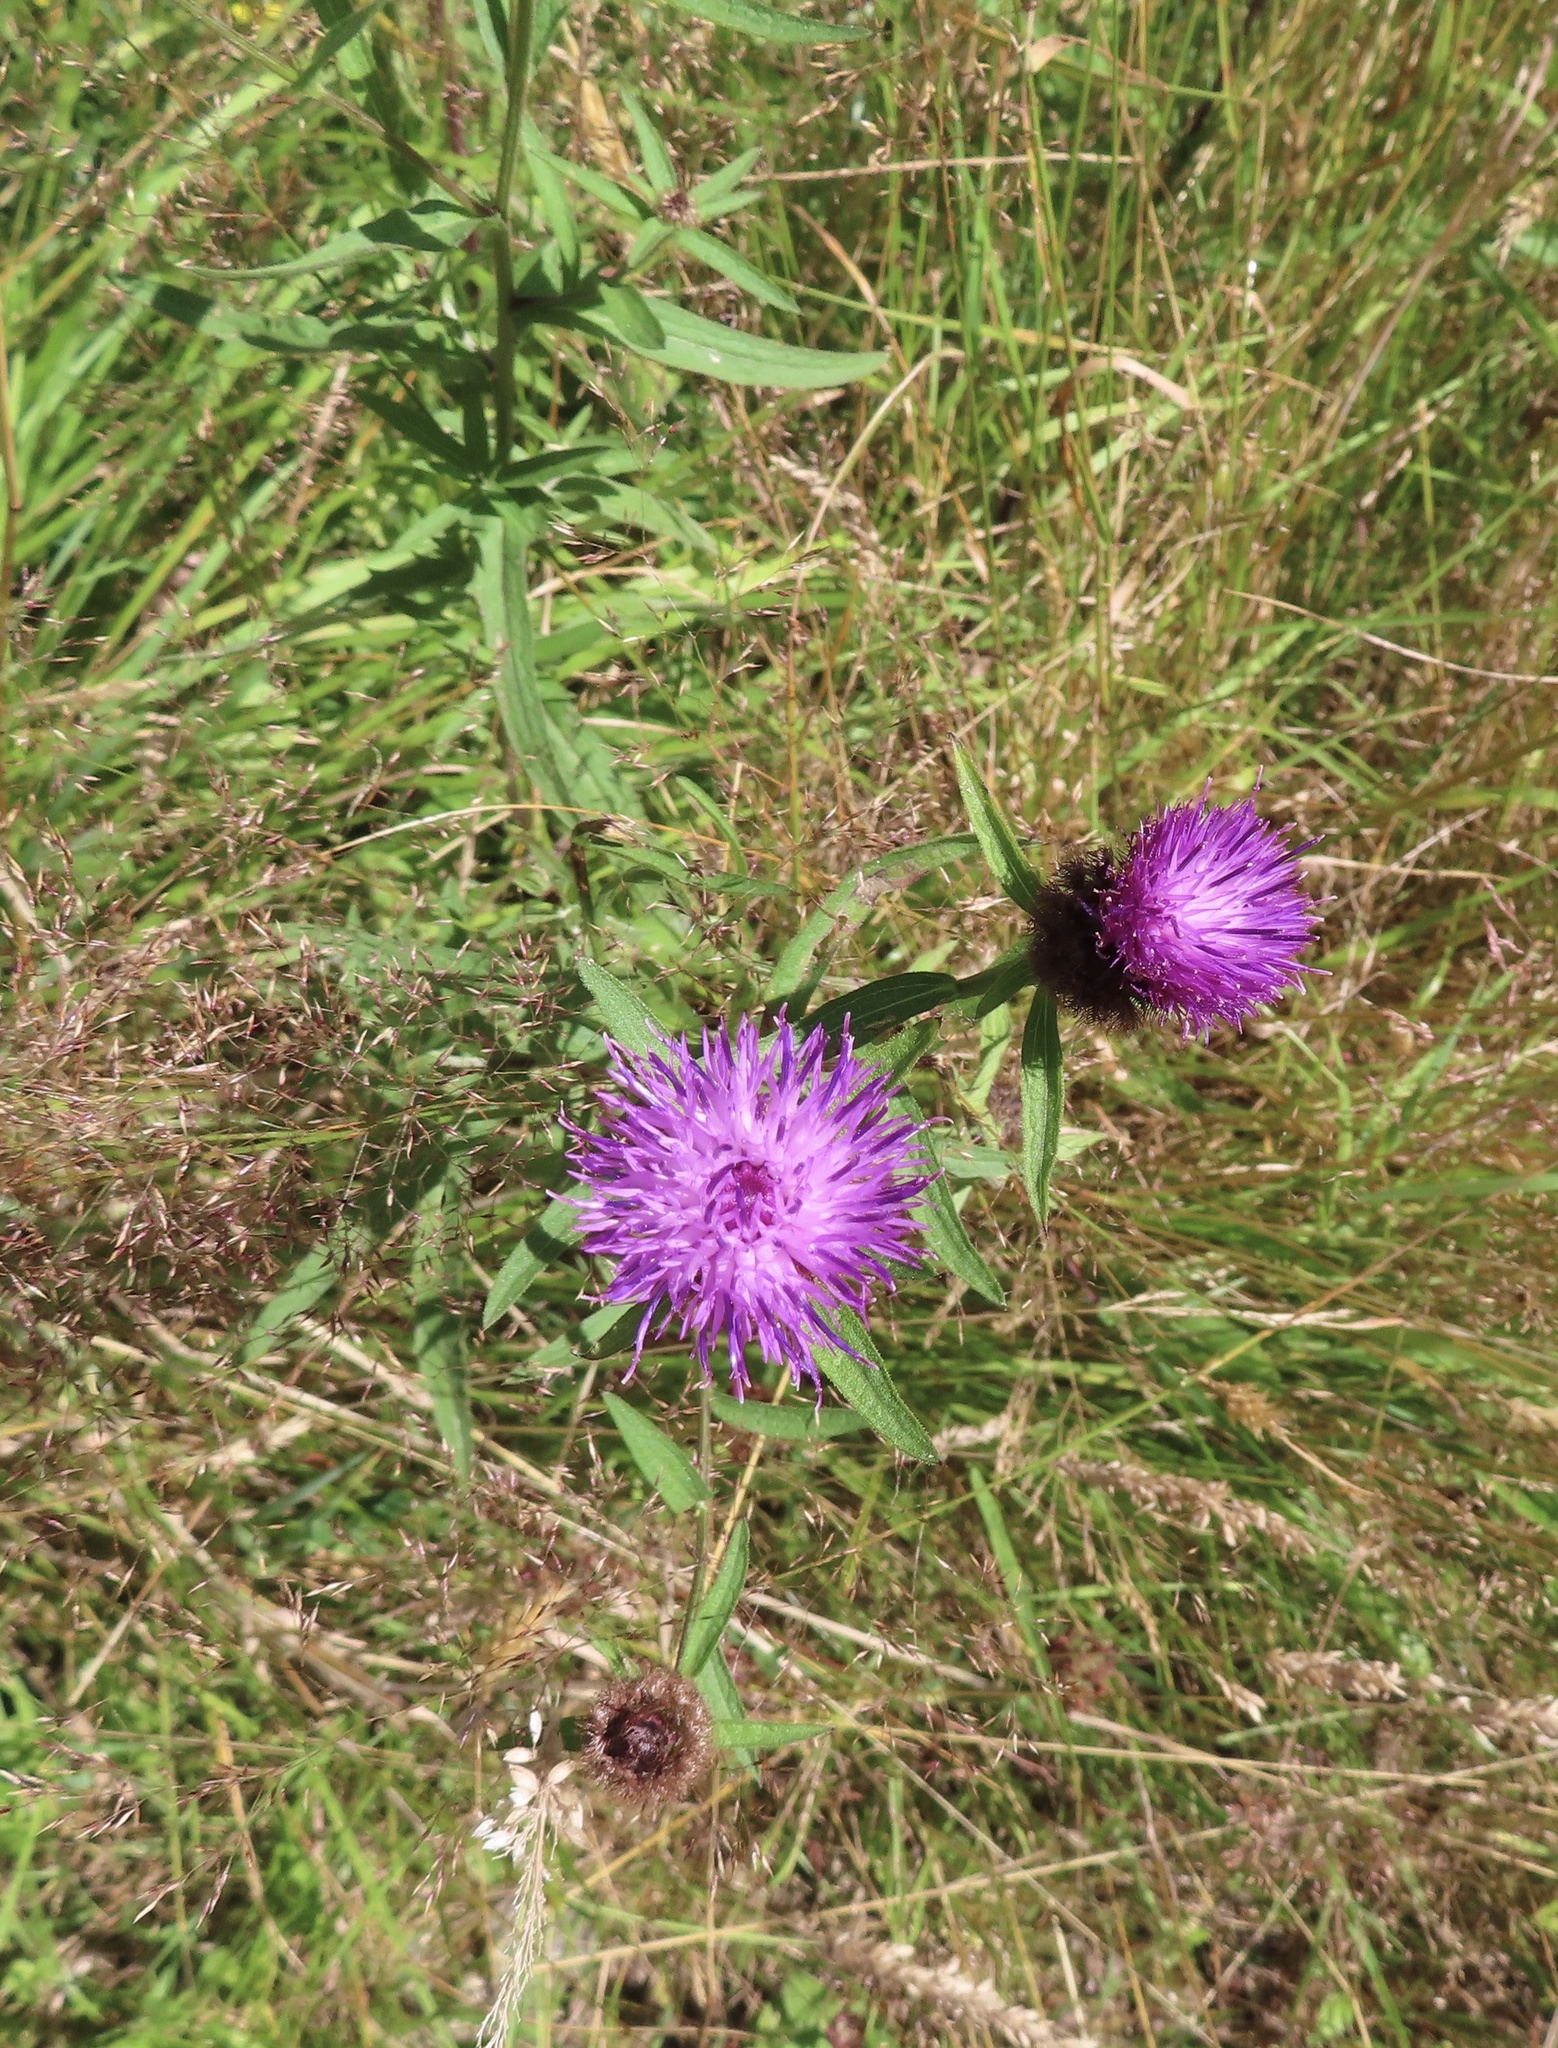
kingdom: Plantae
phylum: Tracheophyta
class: Magnoliopsida
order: Asterales
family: Asteraceae
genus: Centaurea
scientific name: Centaurea nigra
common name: Lesser knapweed
